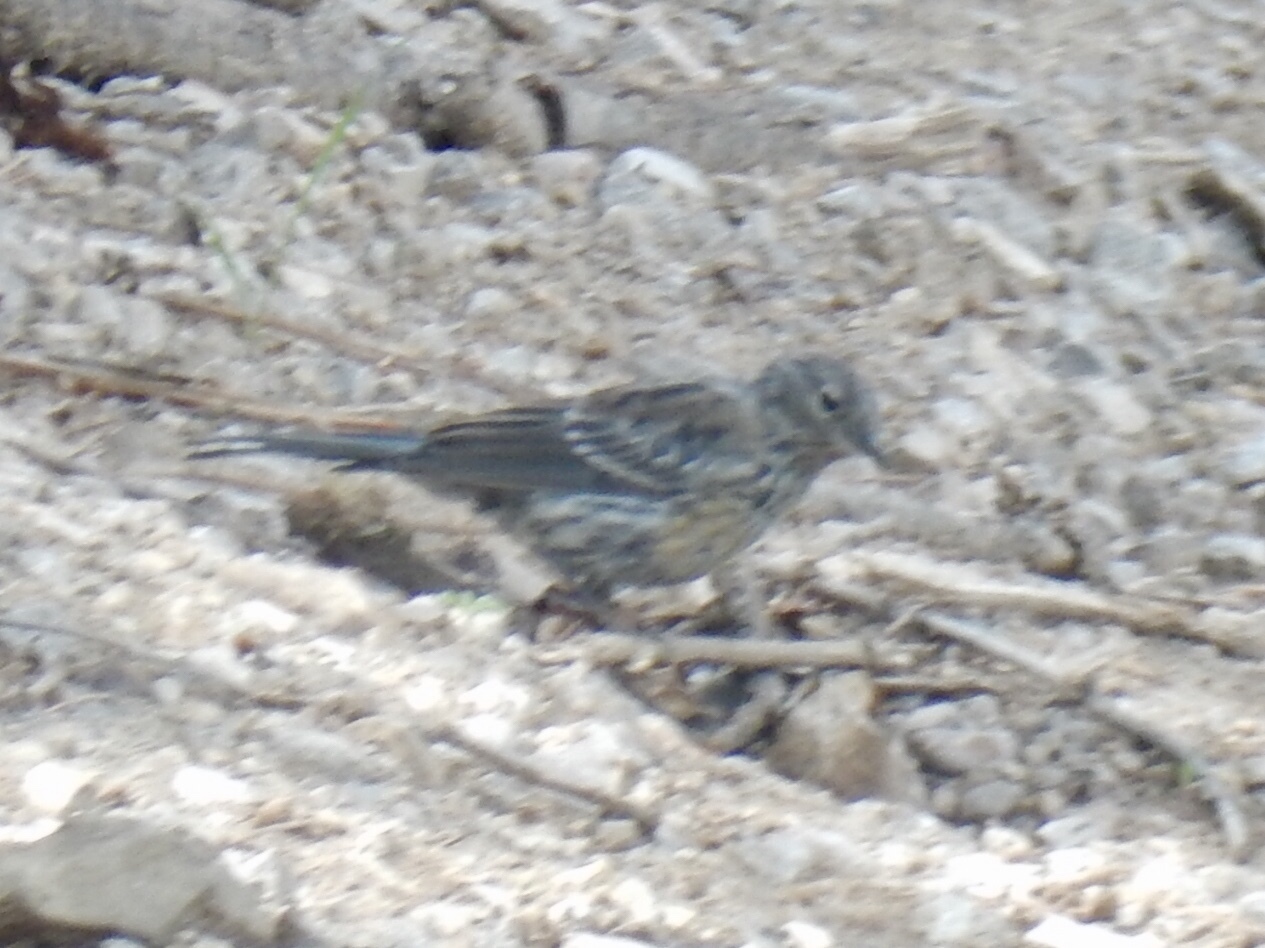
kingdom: Animalia
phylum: Chordata
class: Aves
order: Passeriformes
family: Parulidae
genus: Setophaga
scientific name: Setophaga coronata
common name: Myrtle warbler
